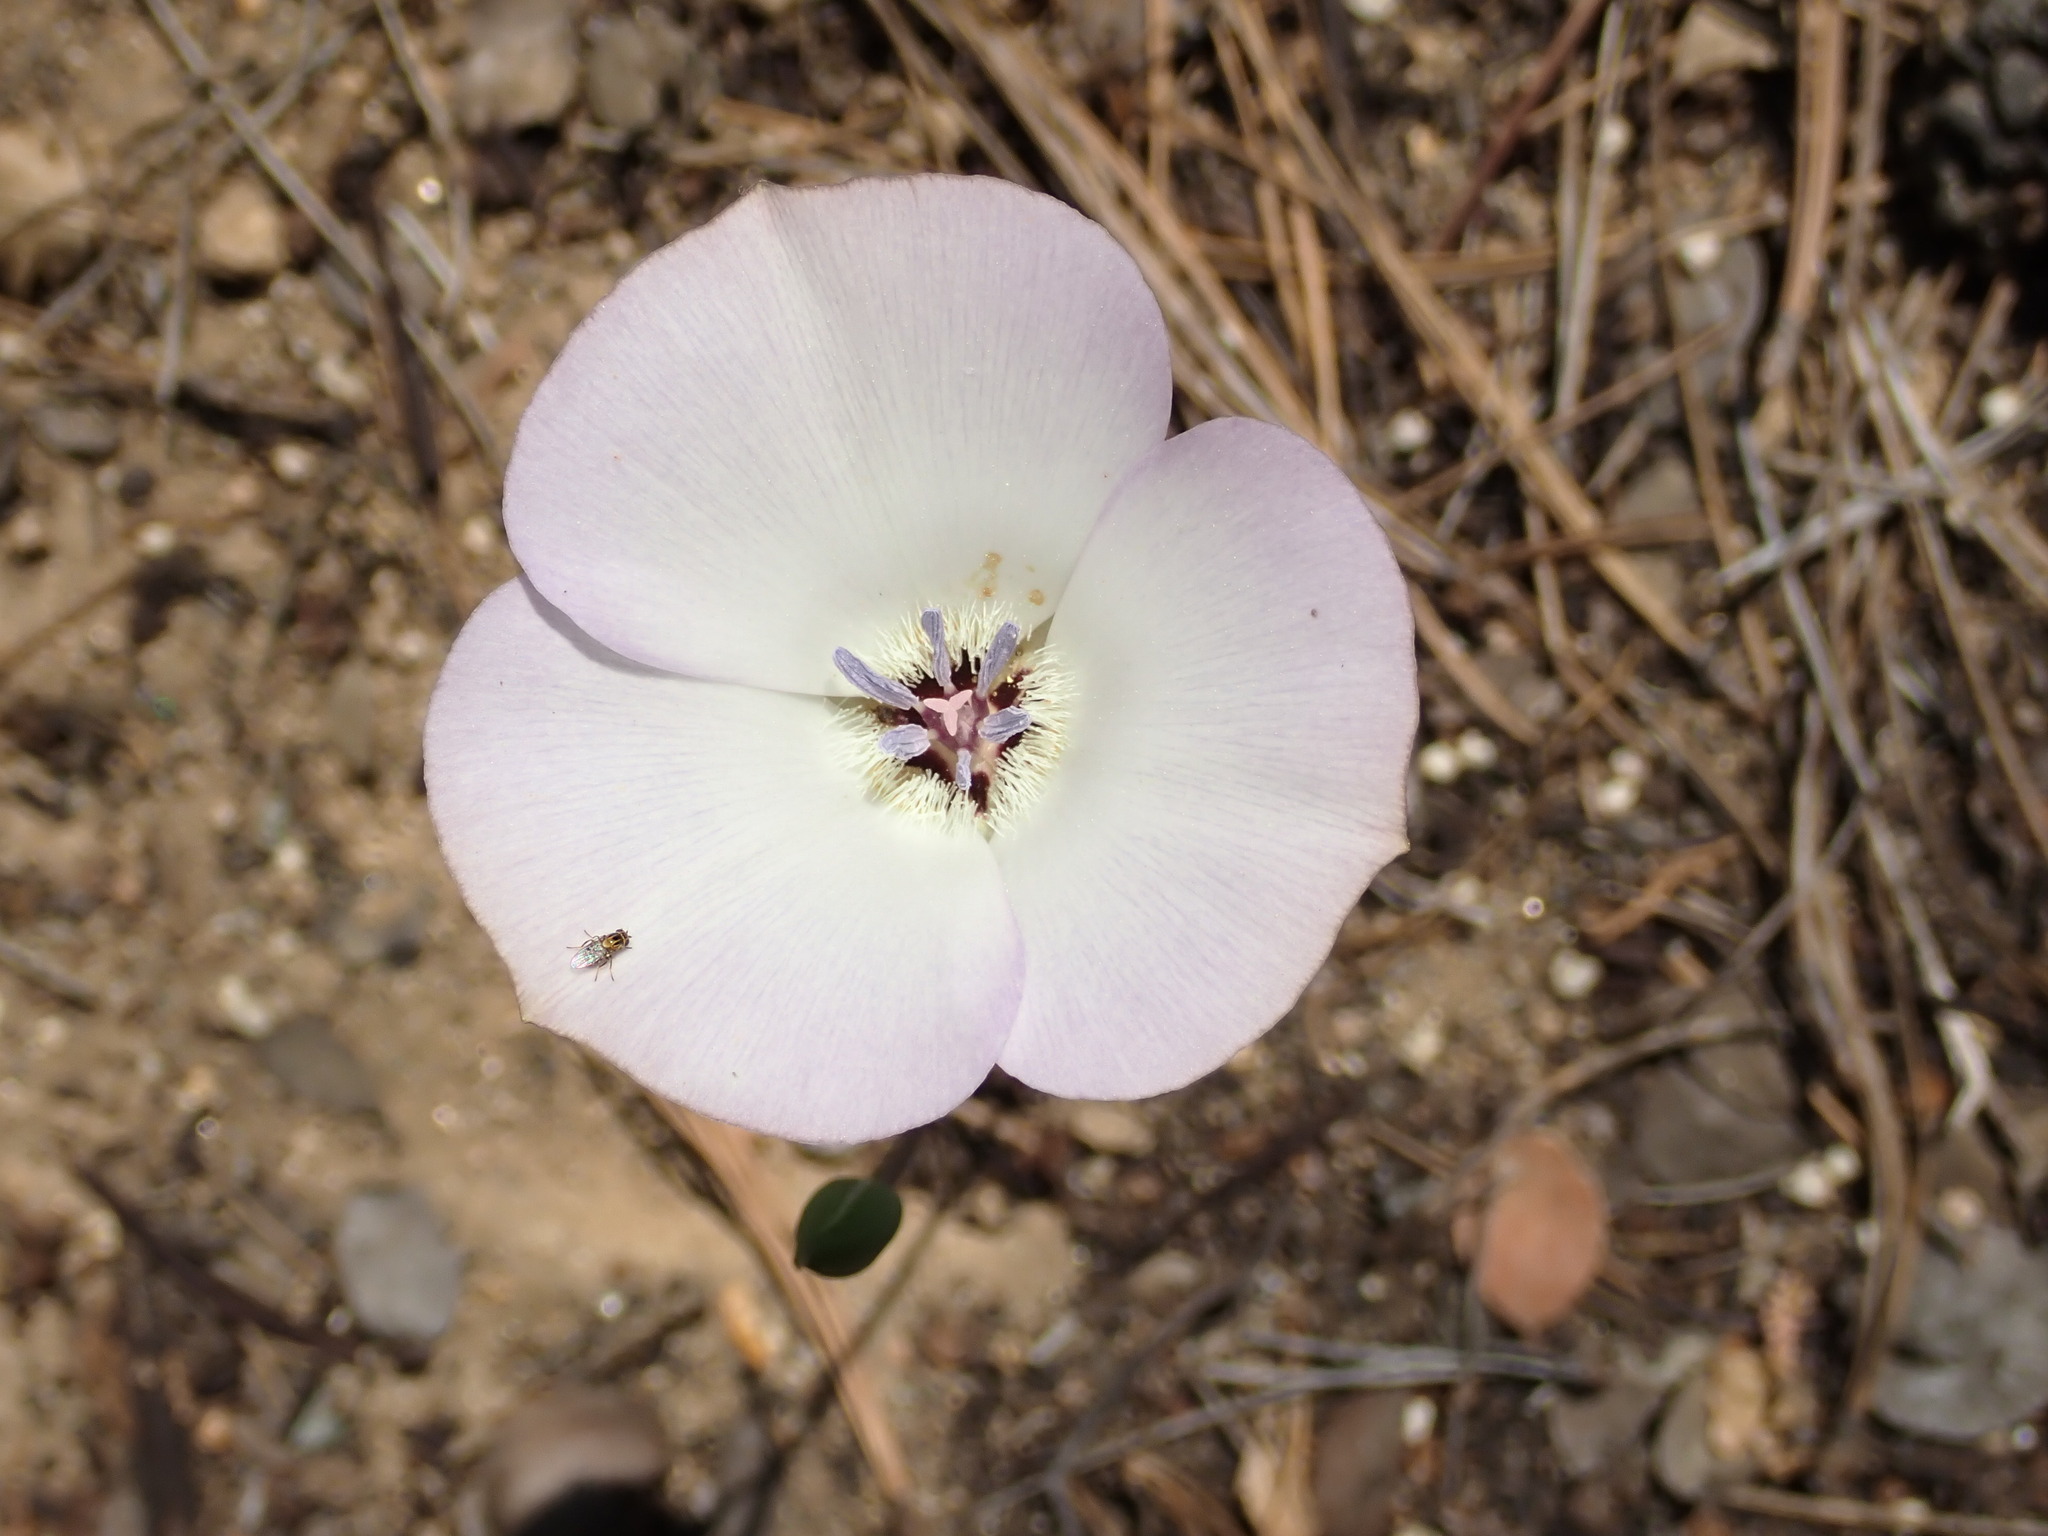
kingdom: Plantae
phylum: Tracheophyta
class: Liliopsida
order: Liliales
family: Liliaceae
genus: Calochortus
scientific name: Calochortus invenustus
